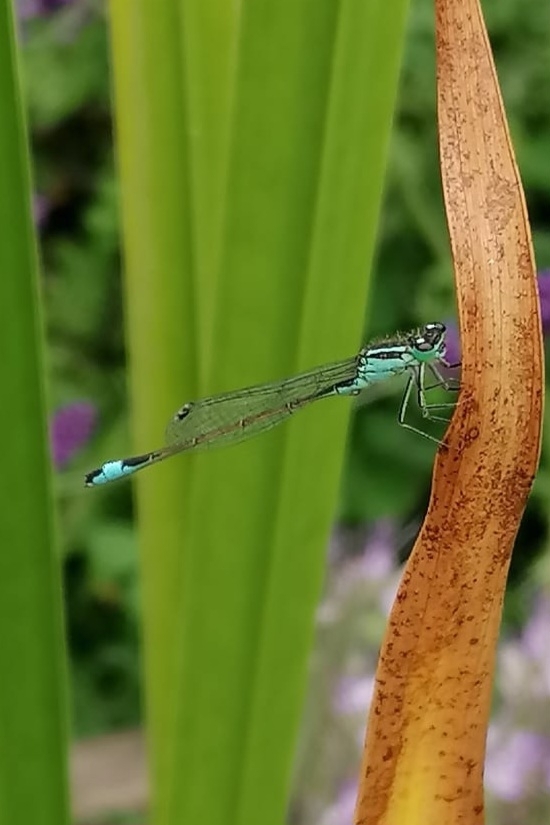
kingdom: Animalia
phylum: Arthropoda
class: Insecta
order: Odonata
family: Coenagrionidae
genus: Ischnura
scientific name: Ischnura elegans
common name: Blue-tailed damselfly
